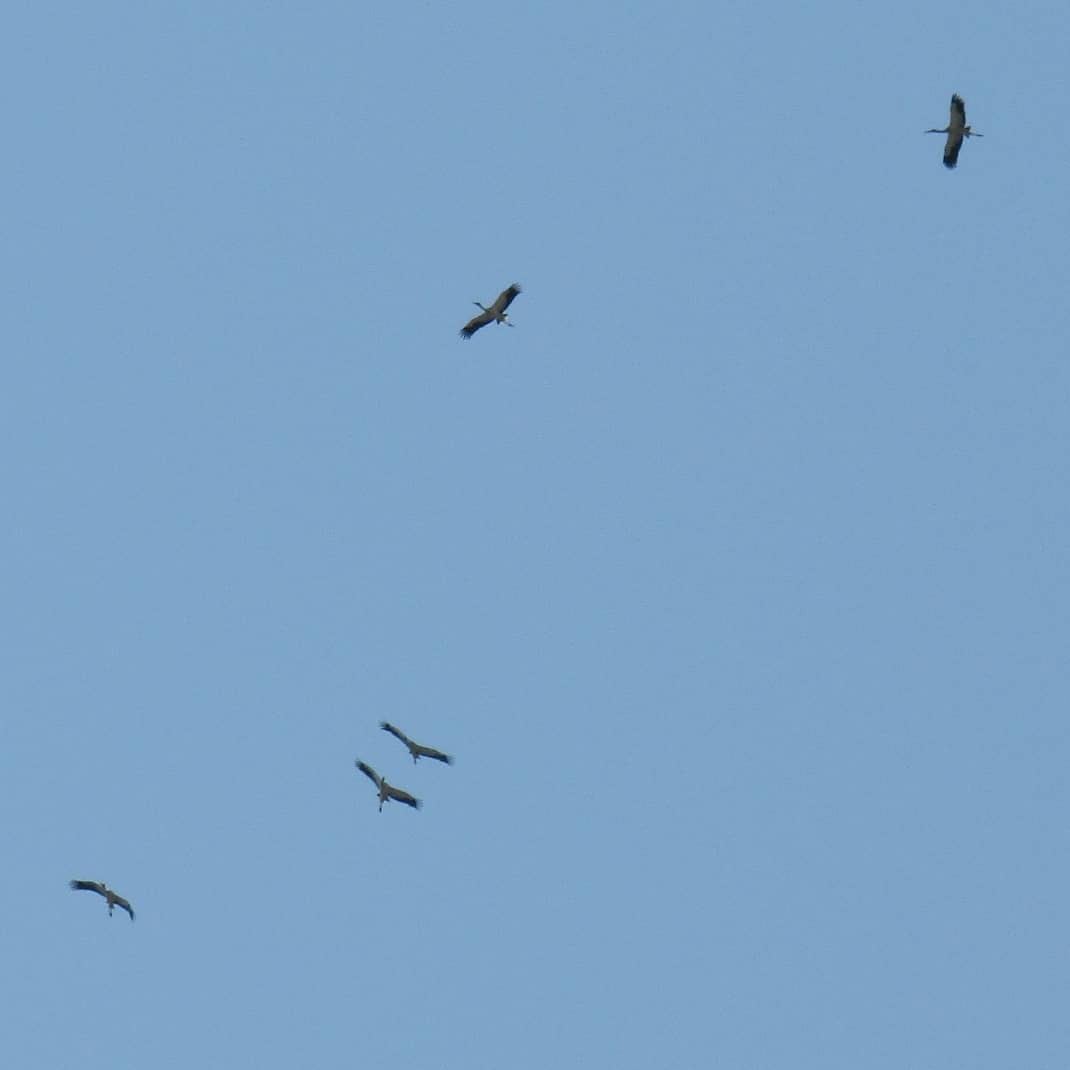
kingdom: Animalia
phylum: Chordata
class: Aves
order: Ciconiiformes
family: Ciconiidae
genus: Ciconia
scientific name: Ciconia maguari
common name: Maguari stork
